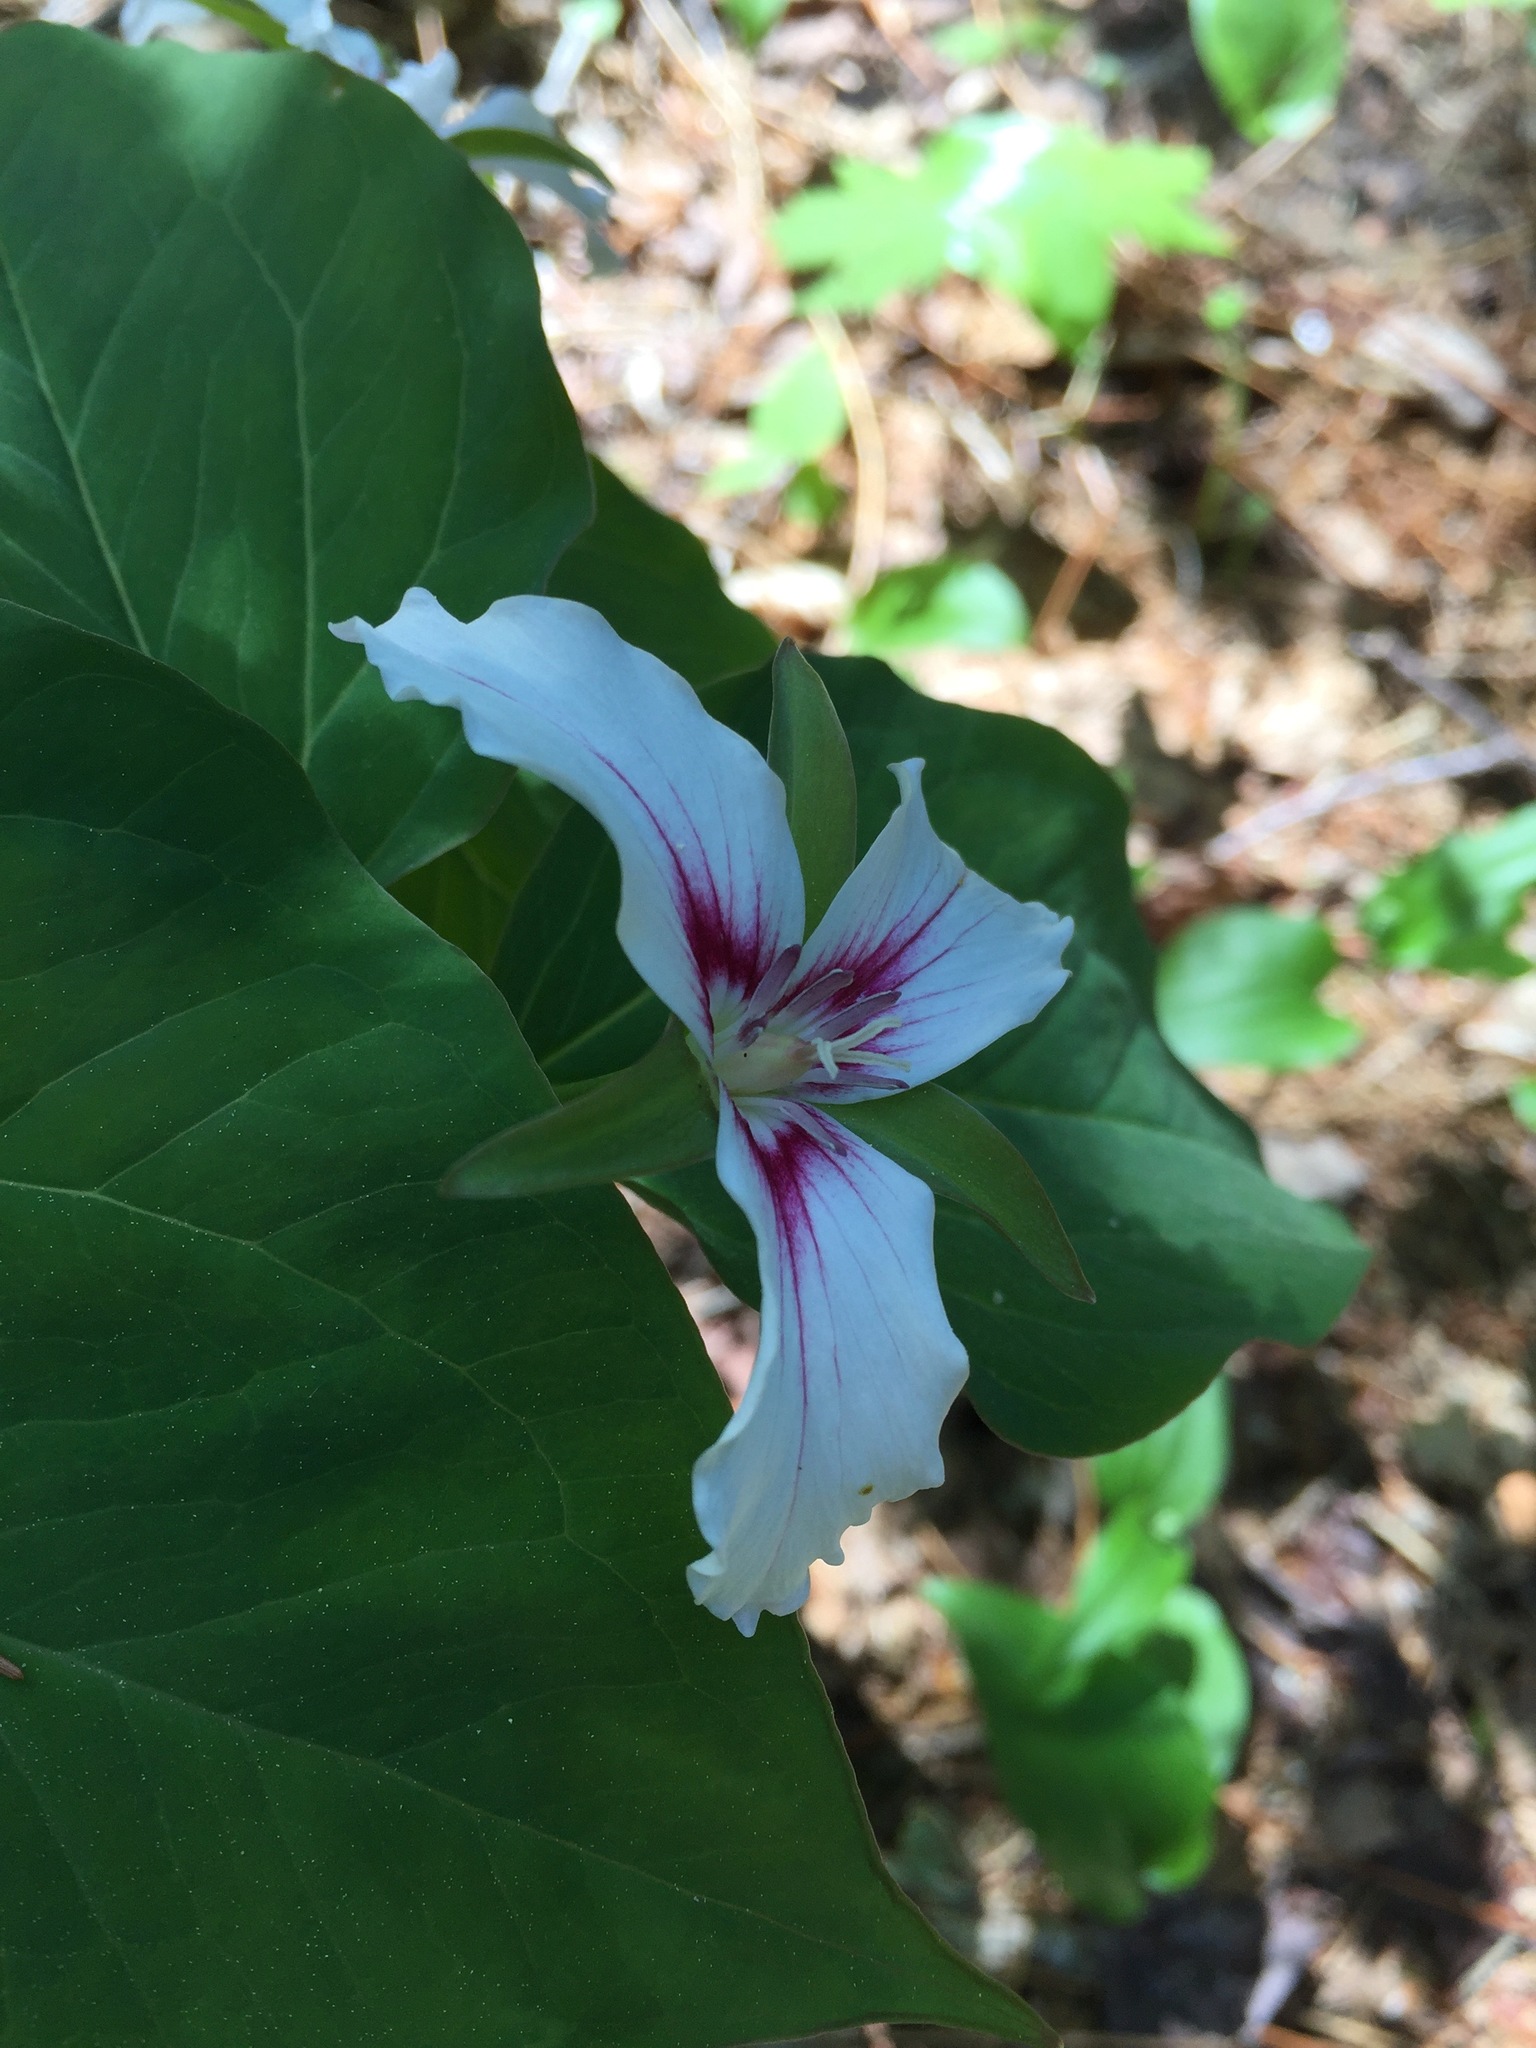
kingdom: Plantae
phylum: Tracheophyta
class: Liliopsida
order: Liliales
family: Melanthiaceae
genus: Trillium
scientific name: Trillium undulatum
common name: Paint trillium
